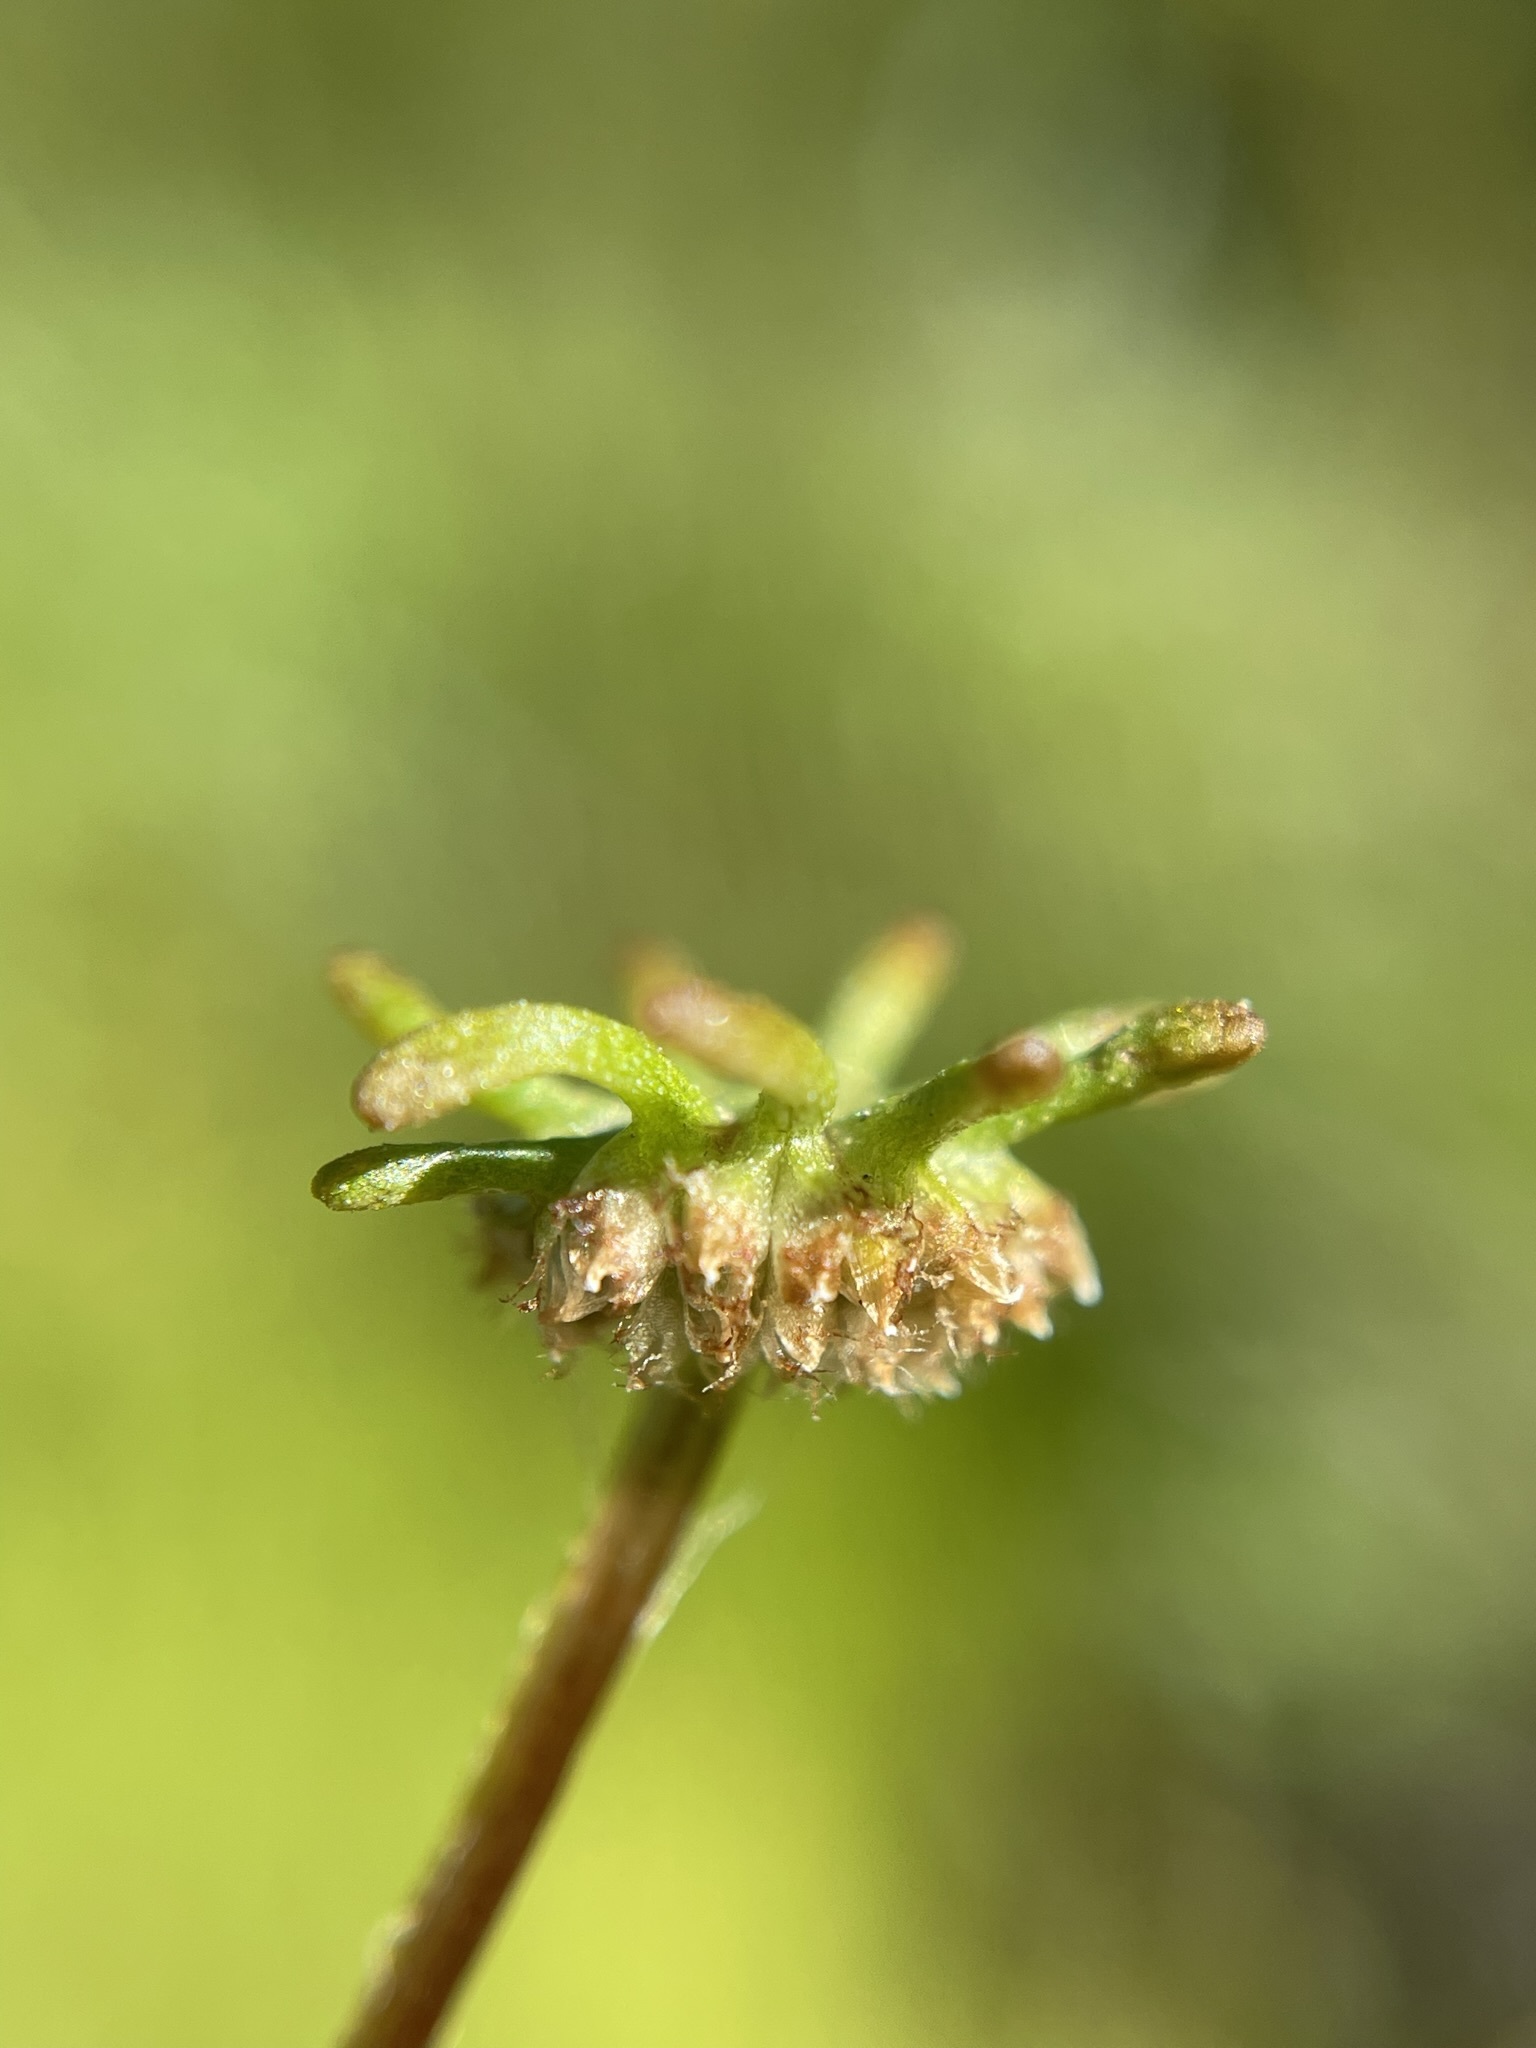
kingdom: Plantae
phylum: Marchantiophyta
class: Marchantiopsida
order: Marchantiales
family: Marchantiaceae
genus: Marchantia
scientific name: Marchantia polymorpha
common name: Common liverwort
